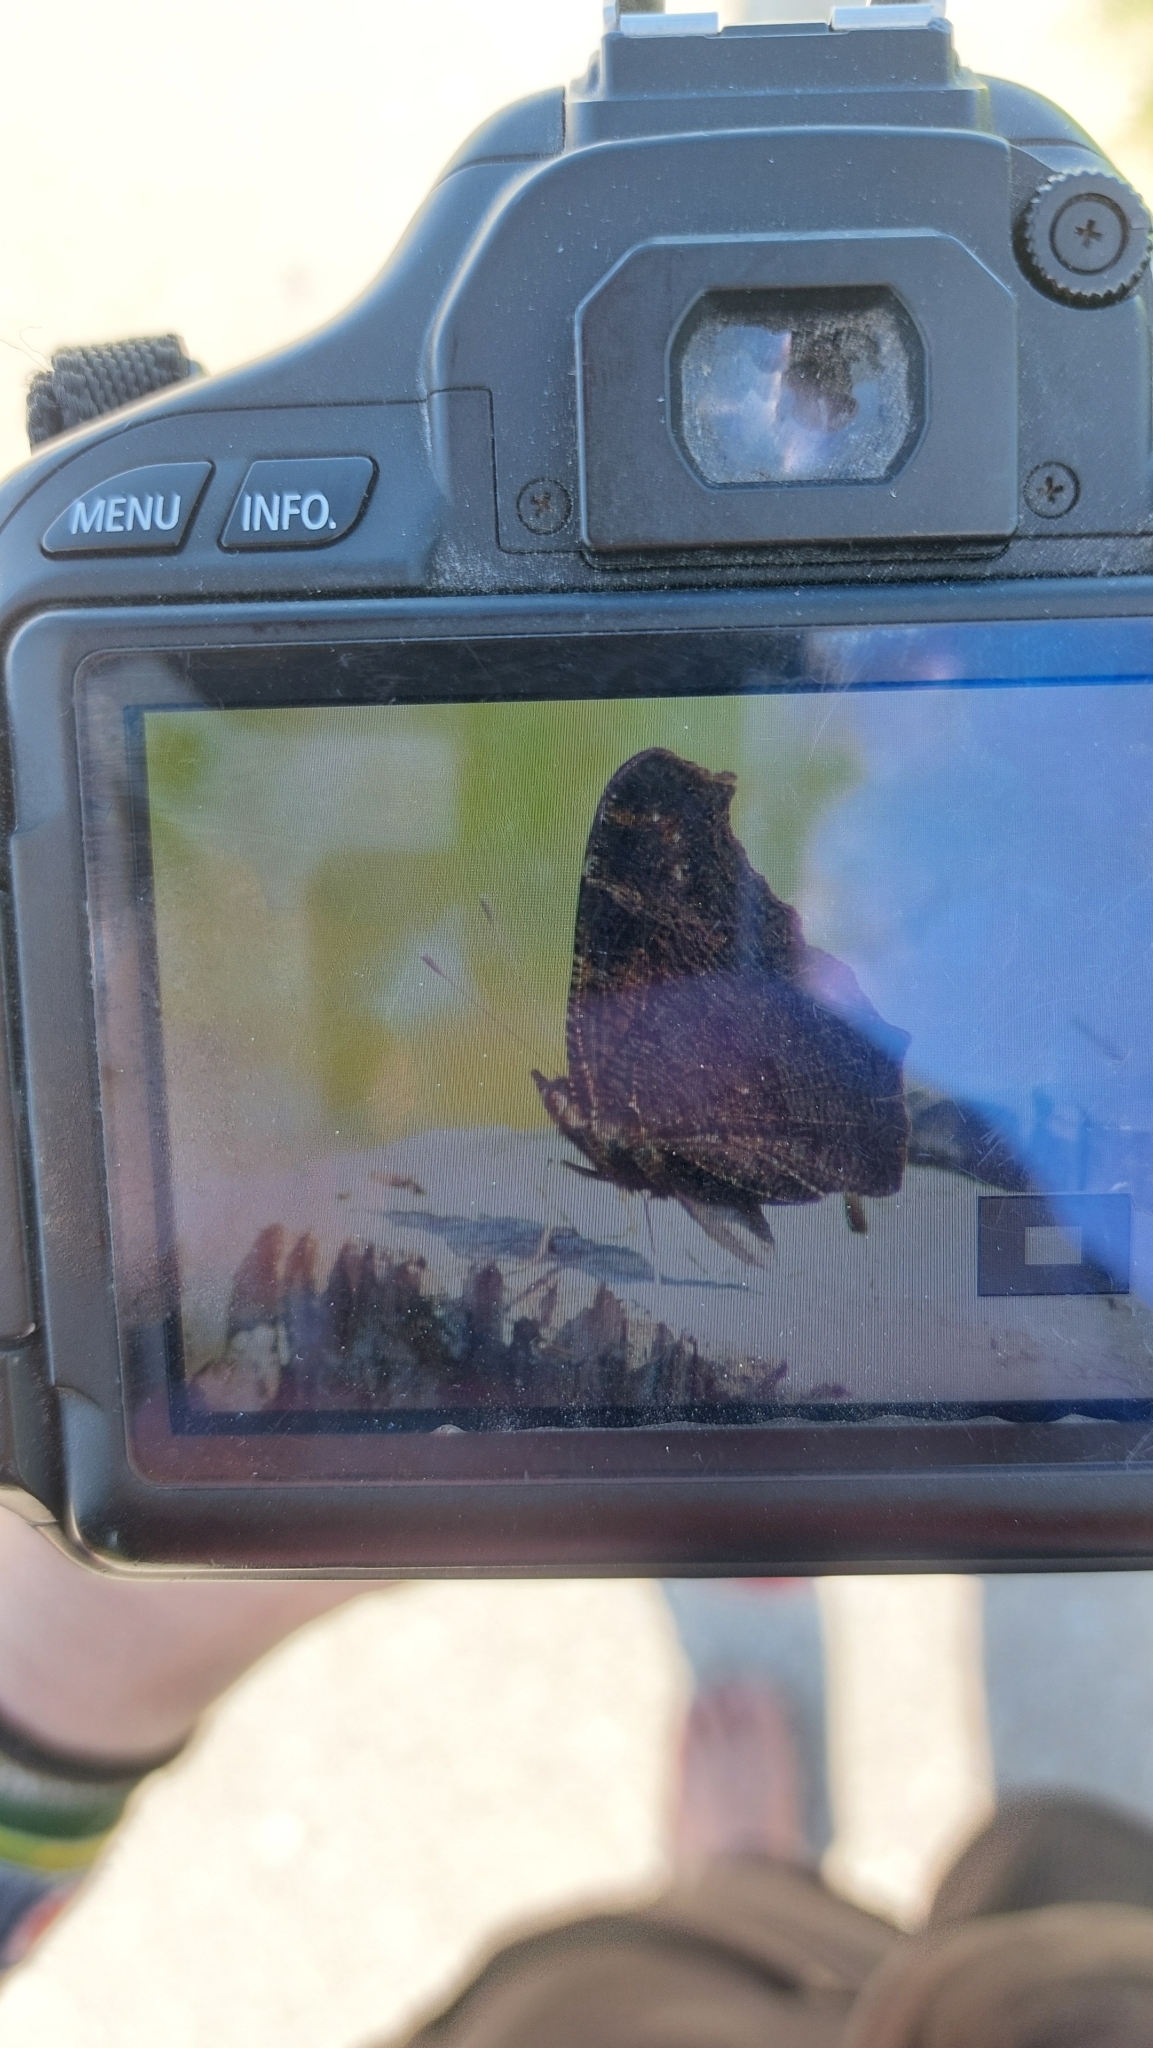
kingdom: Animalia
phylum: Arthropoda
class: Insecta
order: Lepidoptera
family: Nymphalidae
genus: Aglais
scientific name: Aglais io
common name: Peacock
